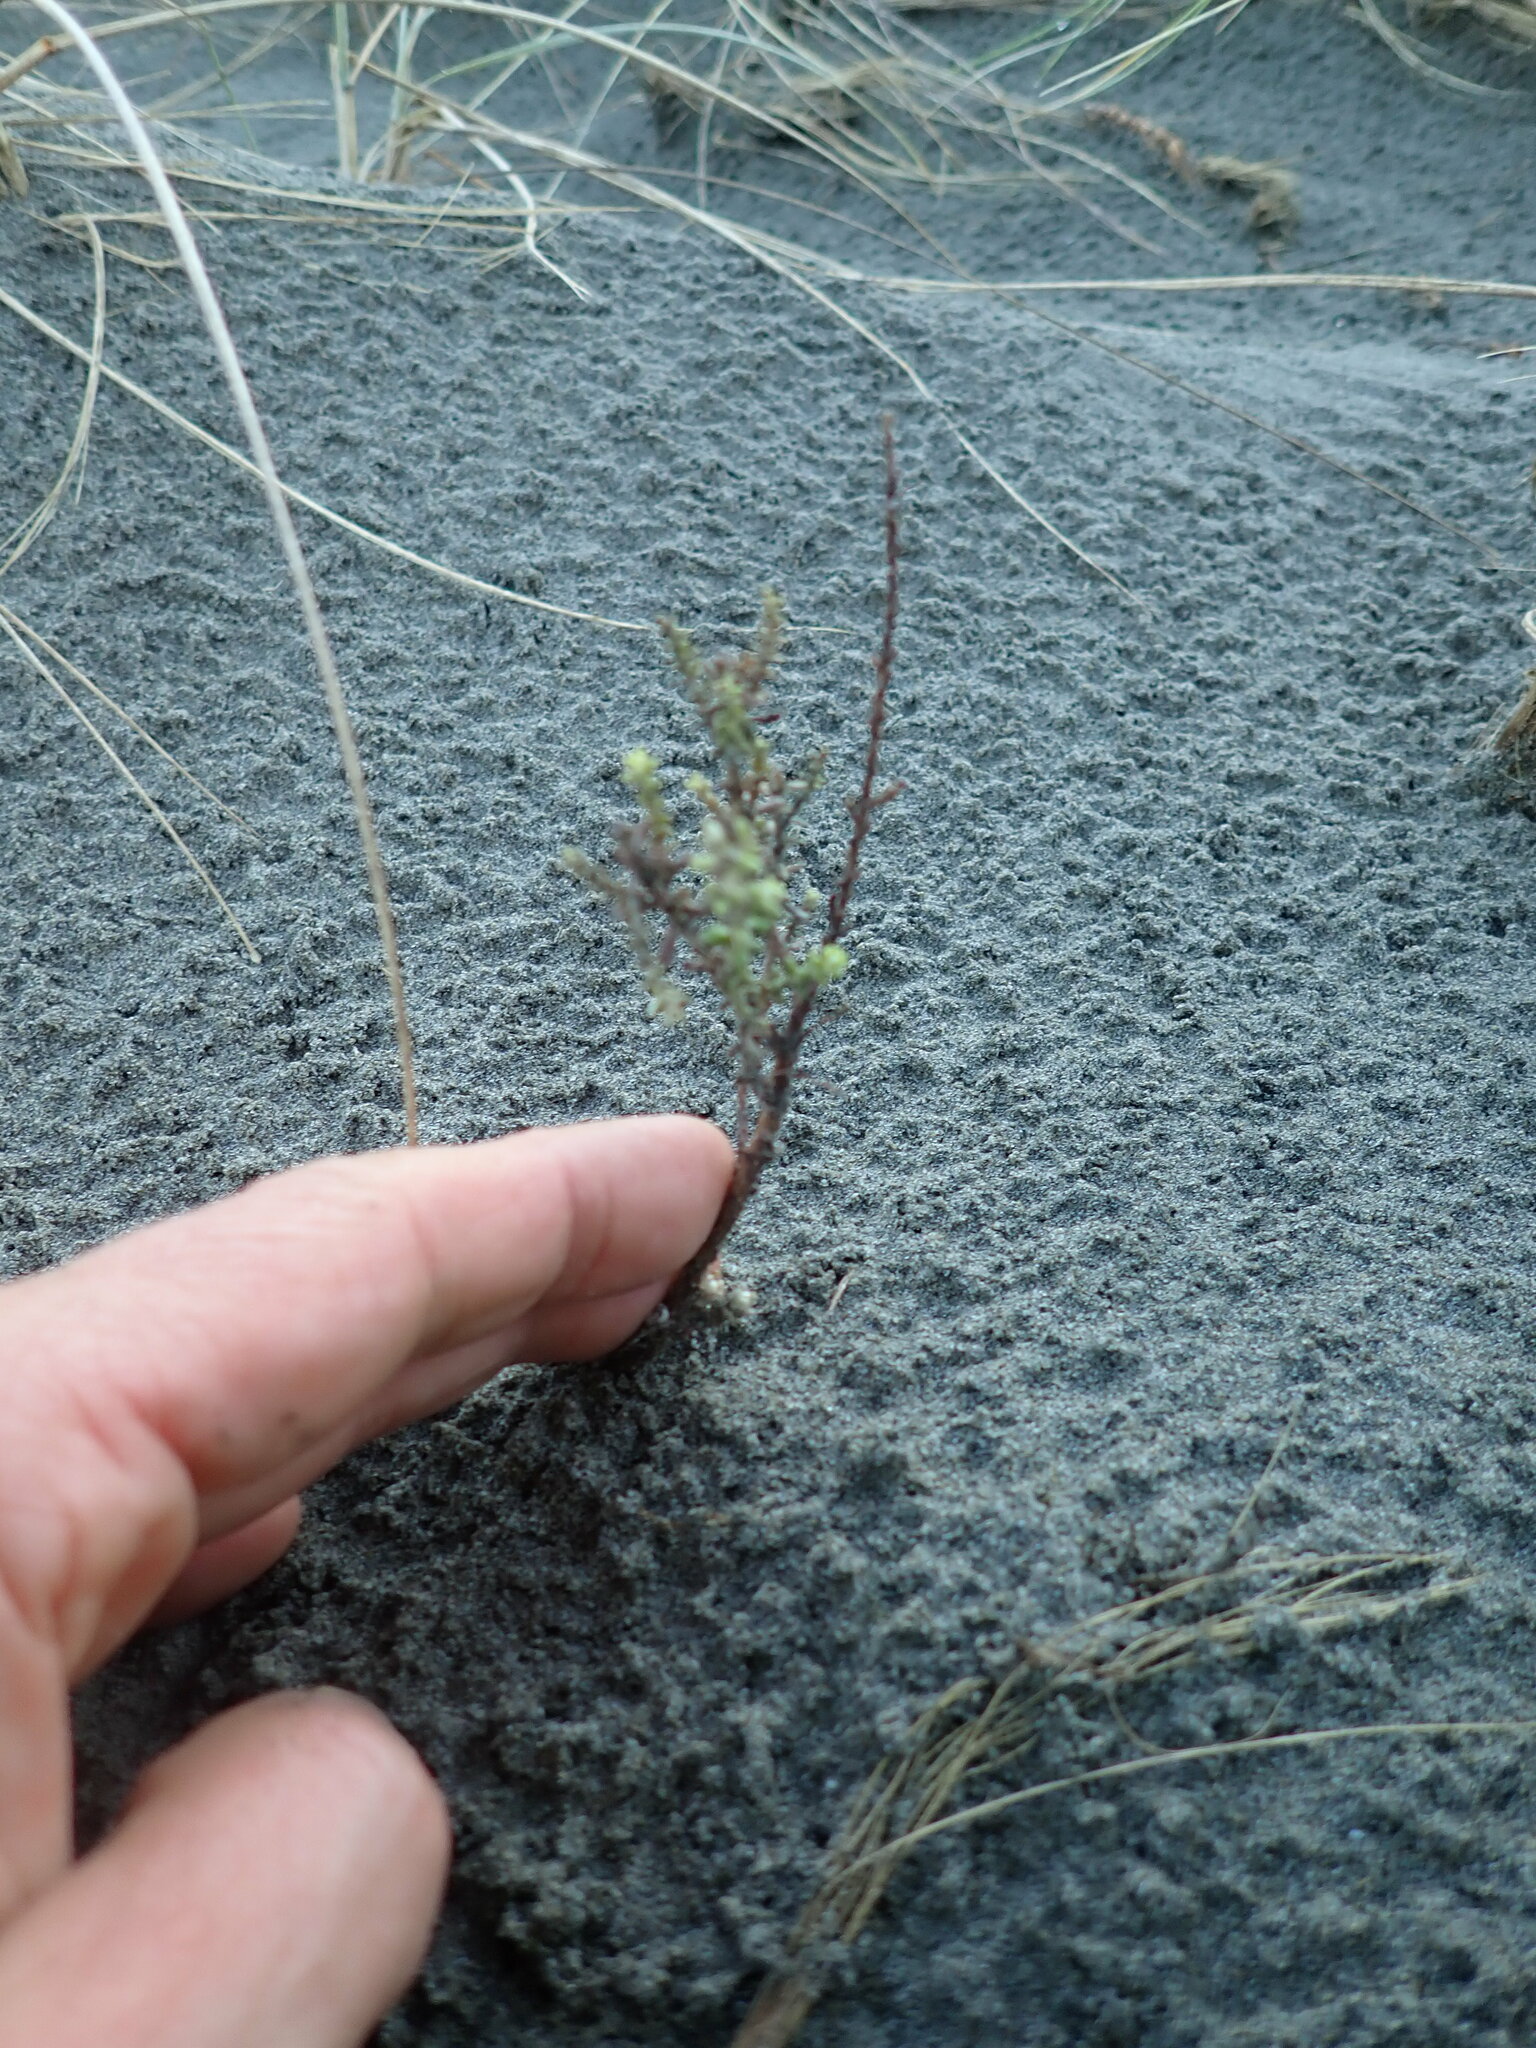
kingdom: Plantae
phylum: Tracheophyta
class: Magnoliopsida
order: Asterales
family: Asteraceae
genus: Ozothamnus
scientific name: Ozothamnus leptophyllus
